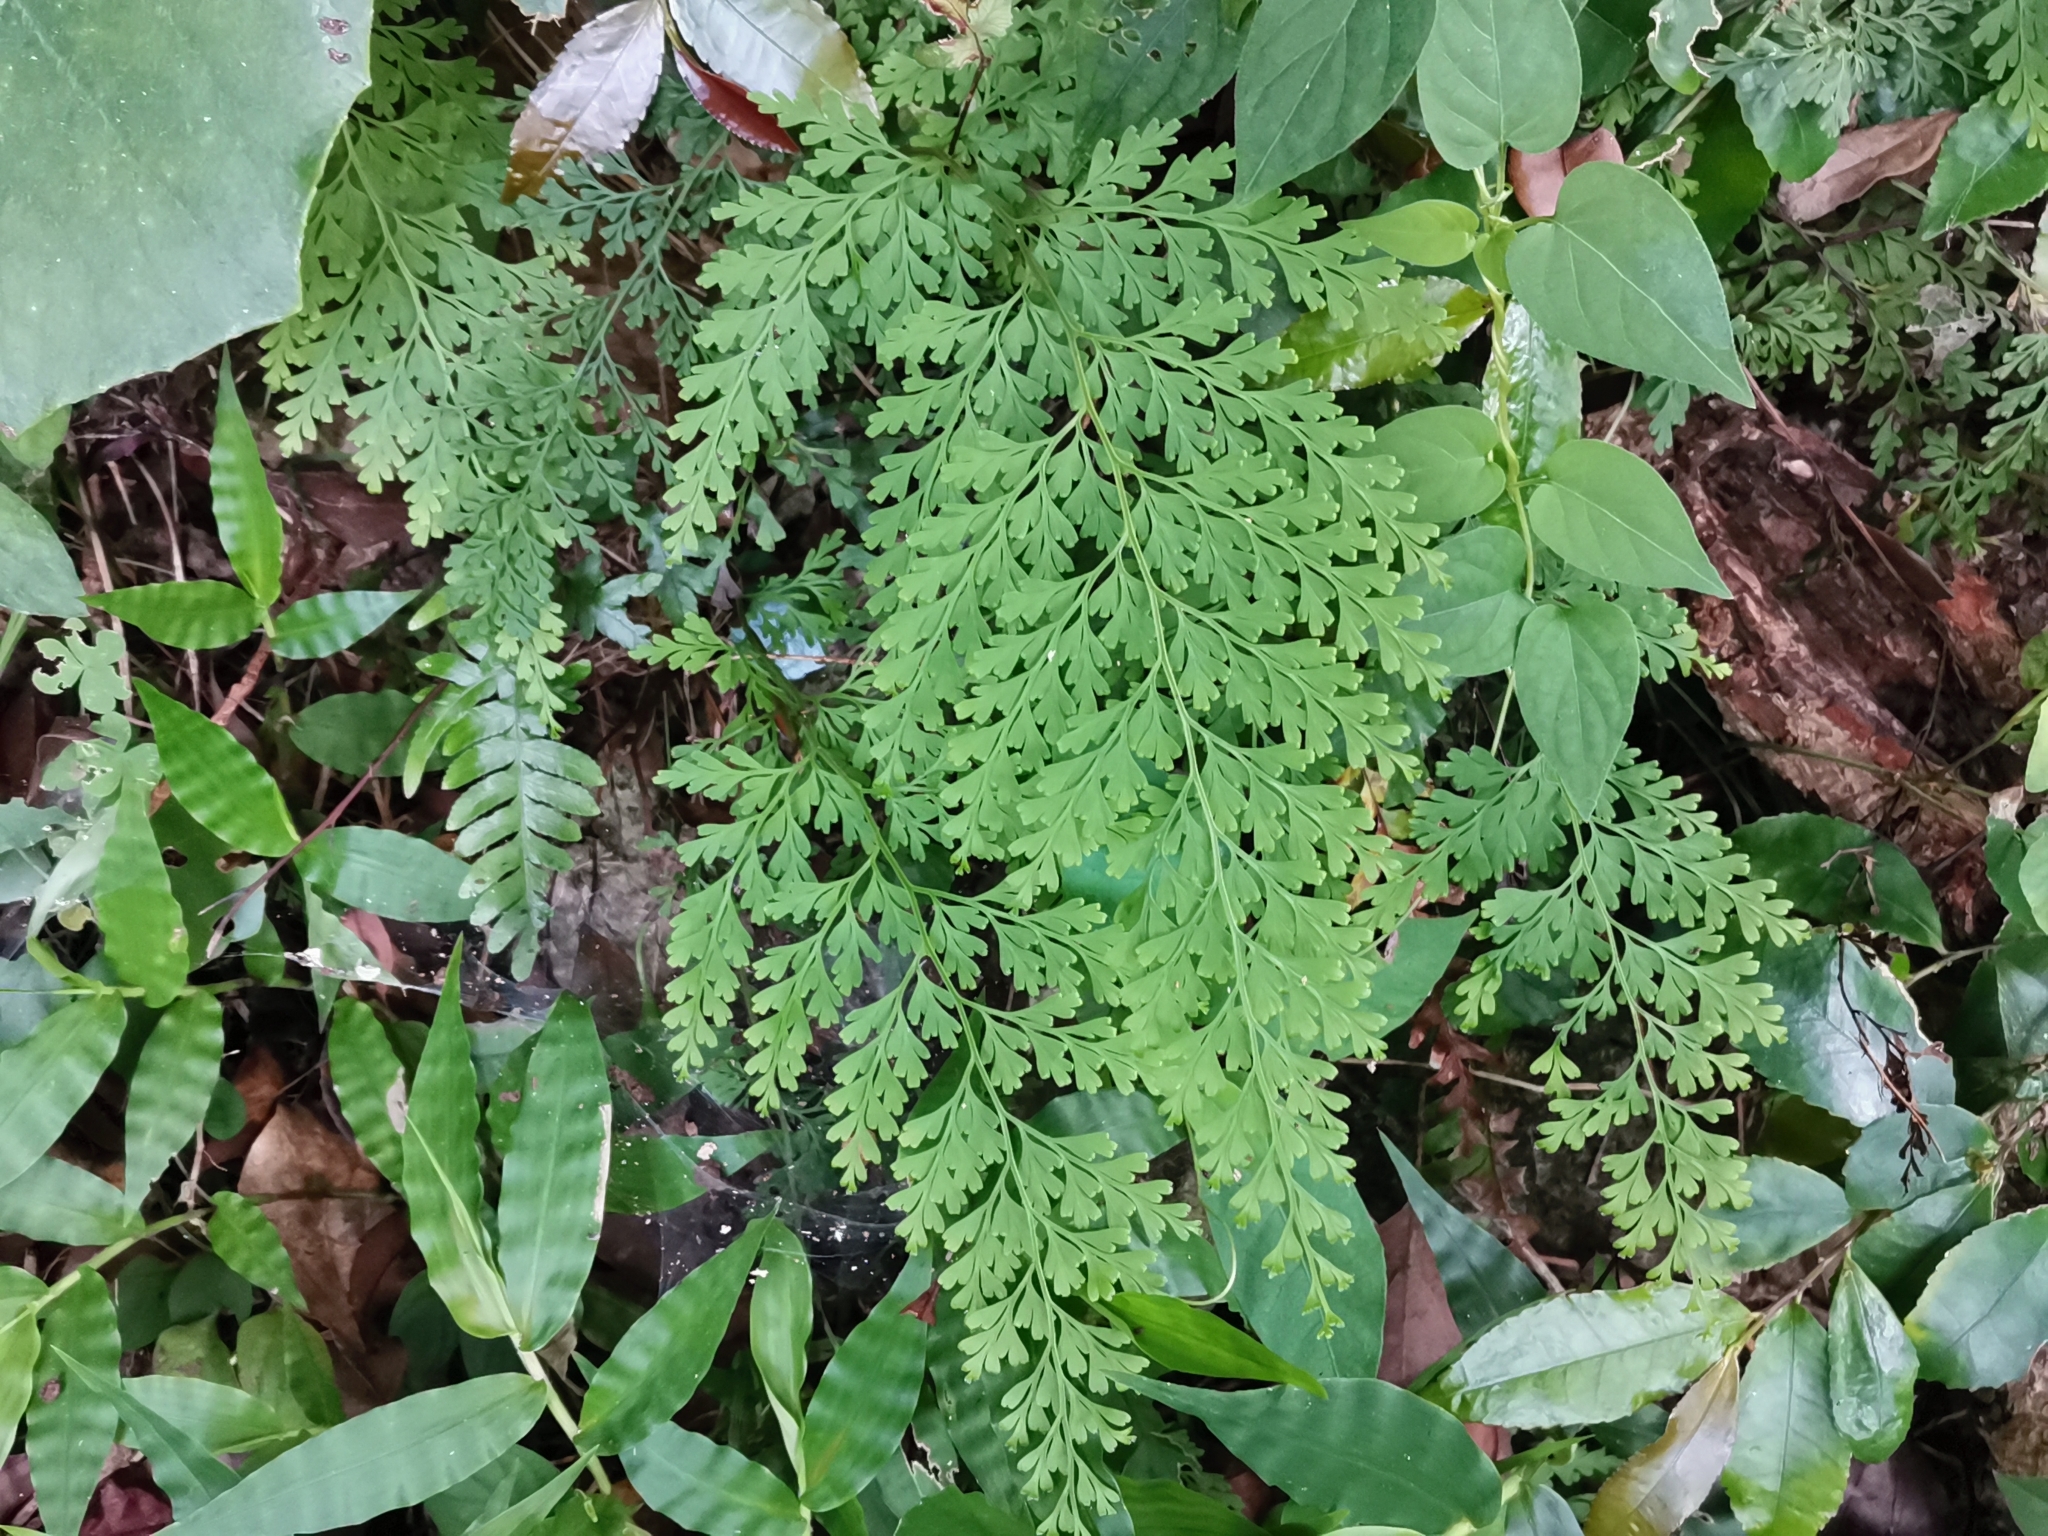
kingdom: Plantae
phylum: Tracheophyta
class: Polypodiopsida
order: Polypodiales
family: Lindsaeaceae
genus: Odontosoria
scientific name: Odontosoria chinensis
